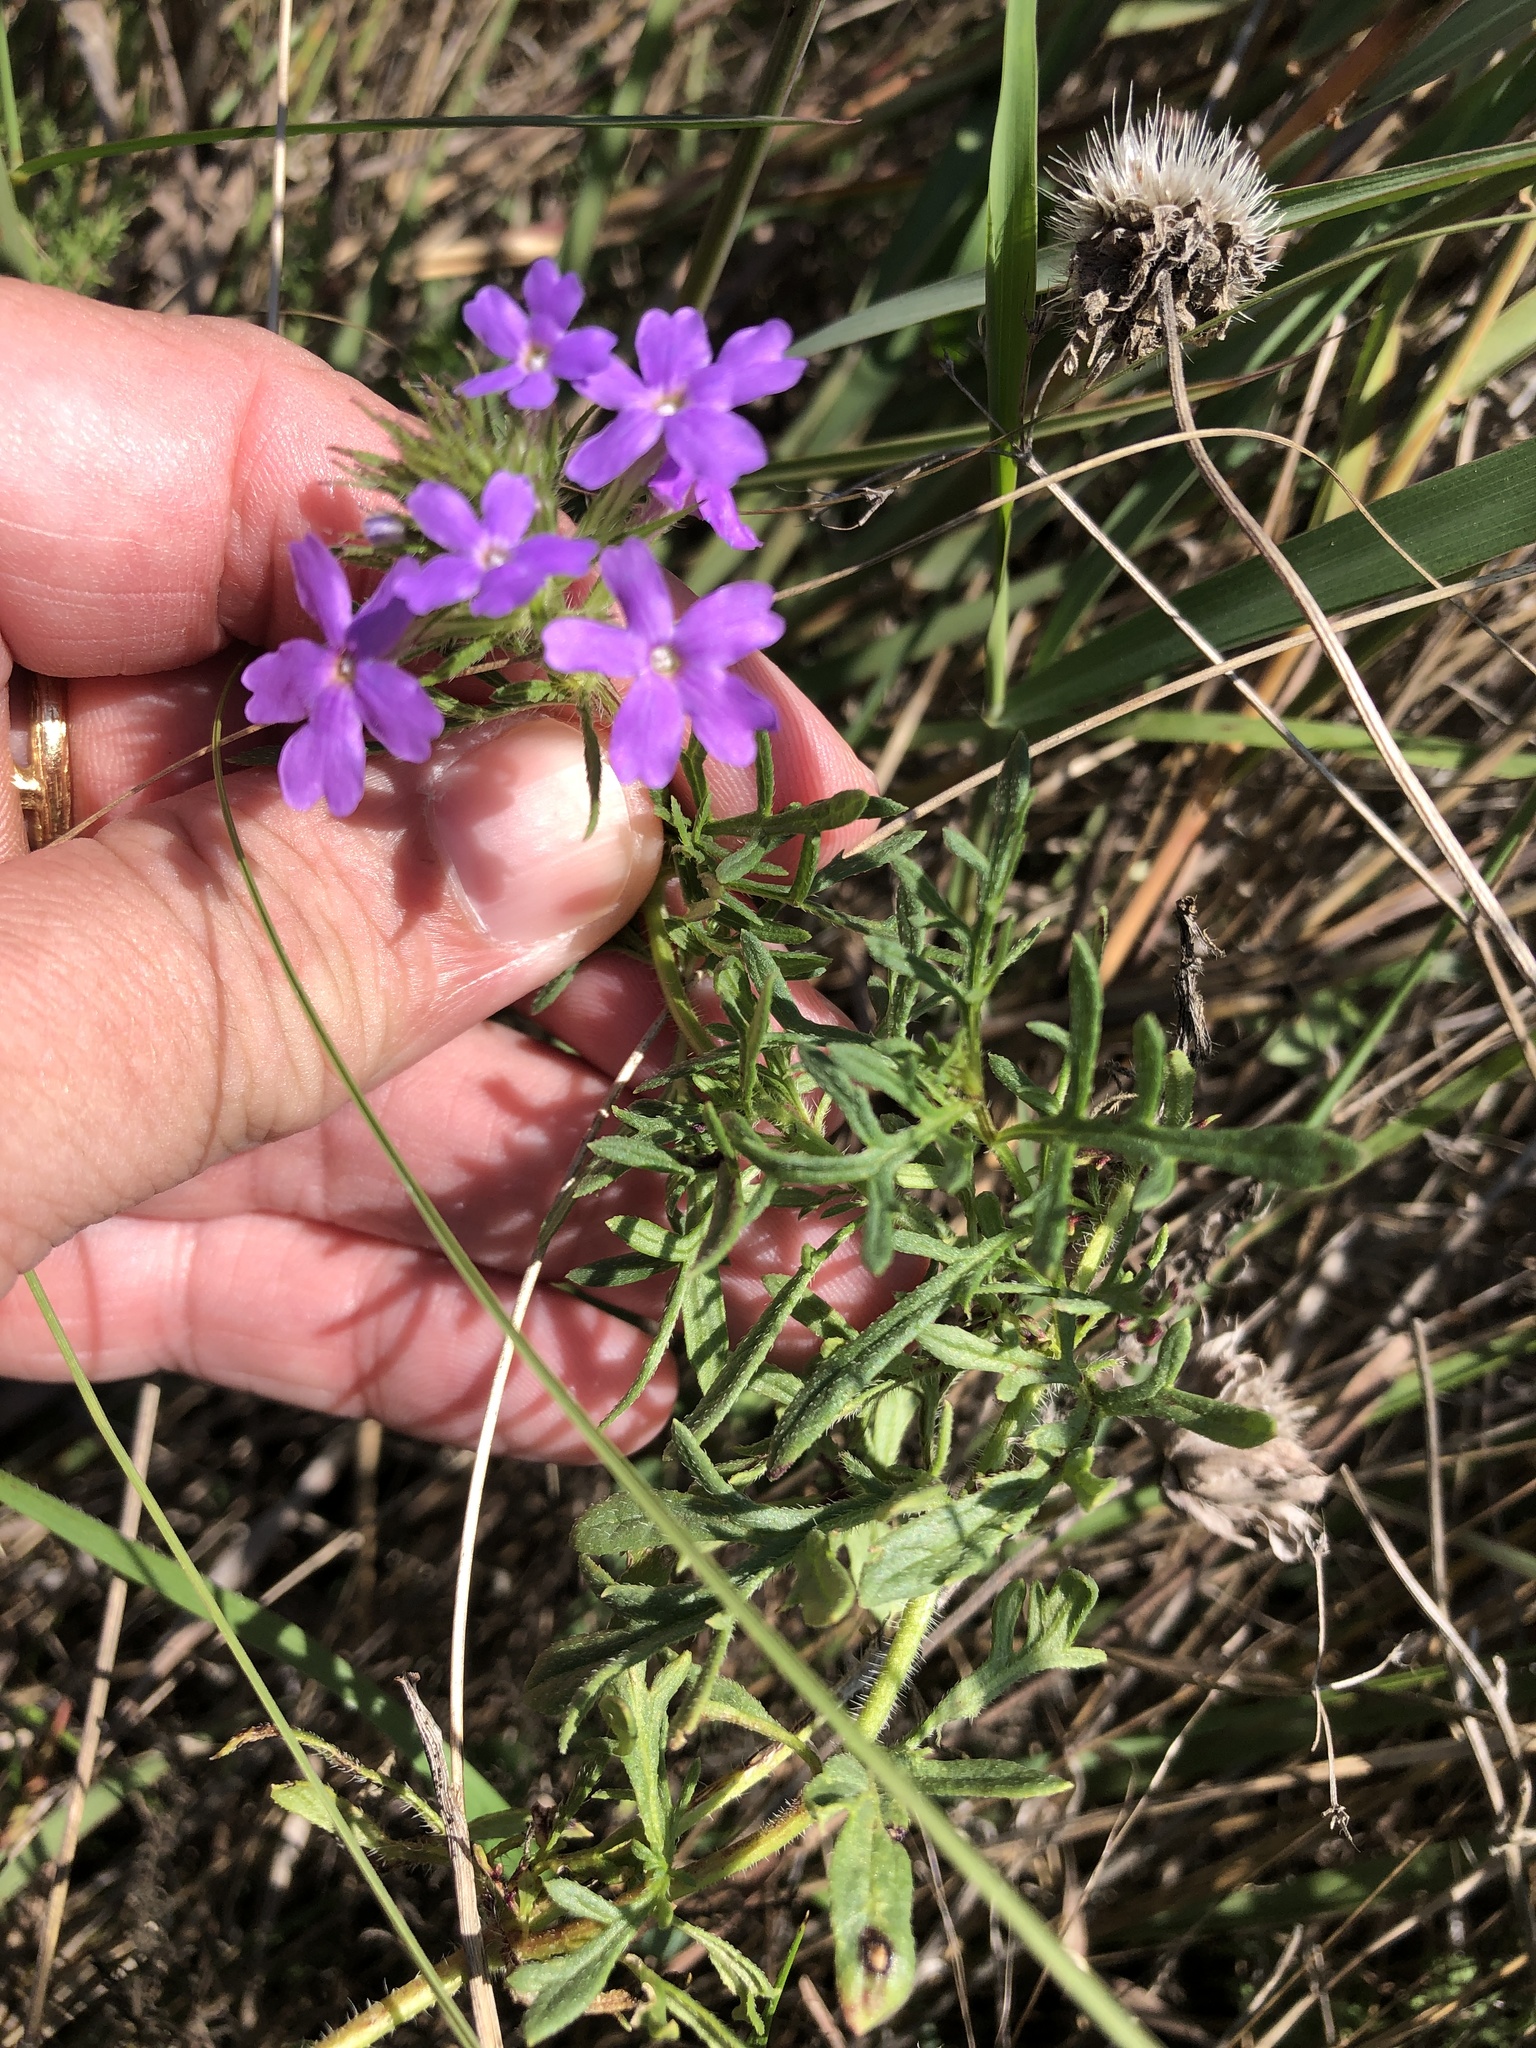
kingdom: Plantae
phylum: Tracheophyta
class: Magnoliopsida
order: Lamiales
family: Verbenaceae
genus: Verbena
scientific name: Verbena bipinnatifida
